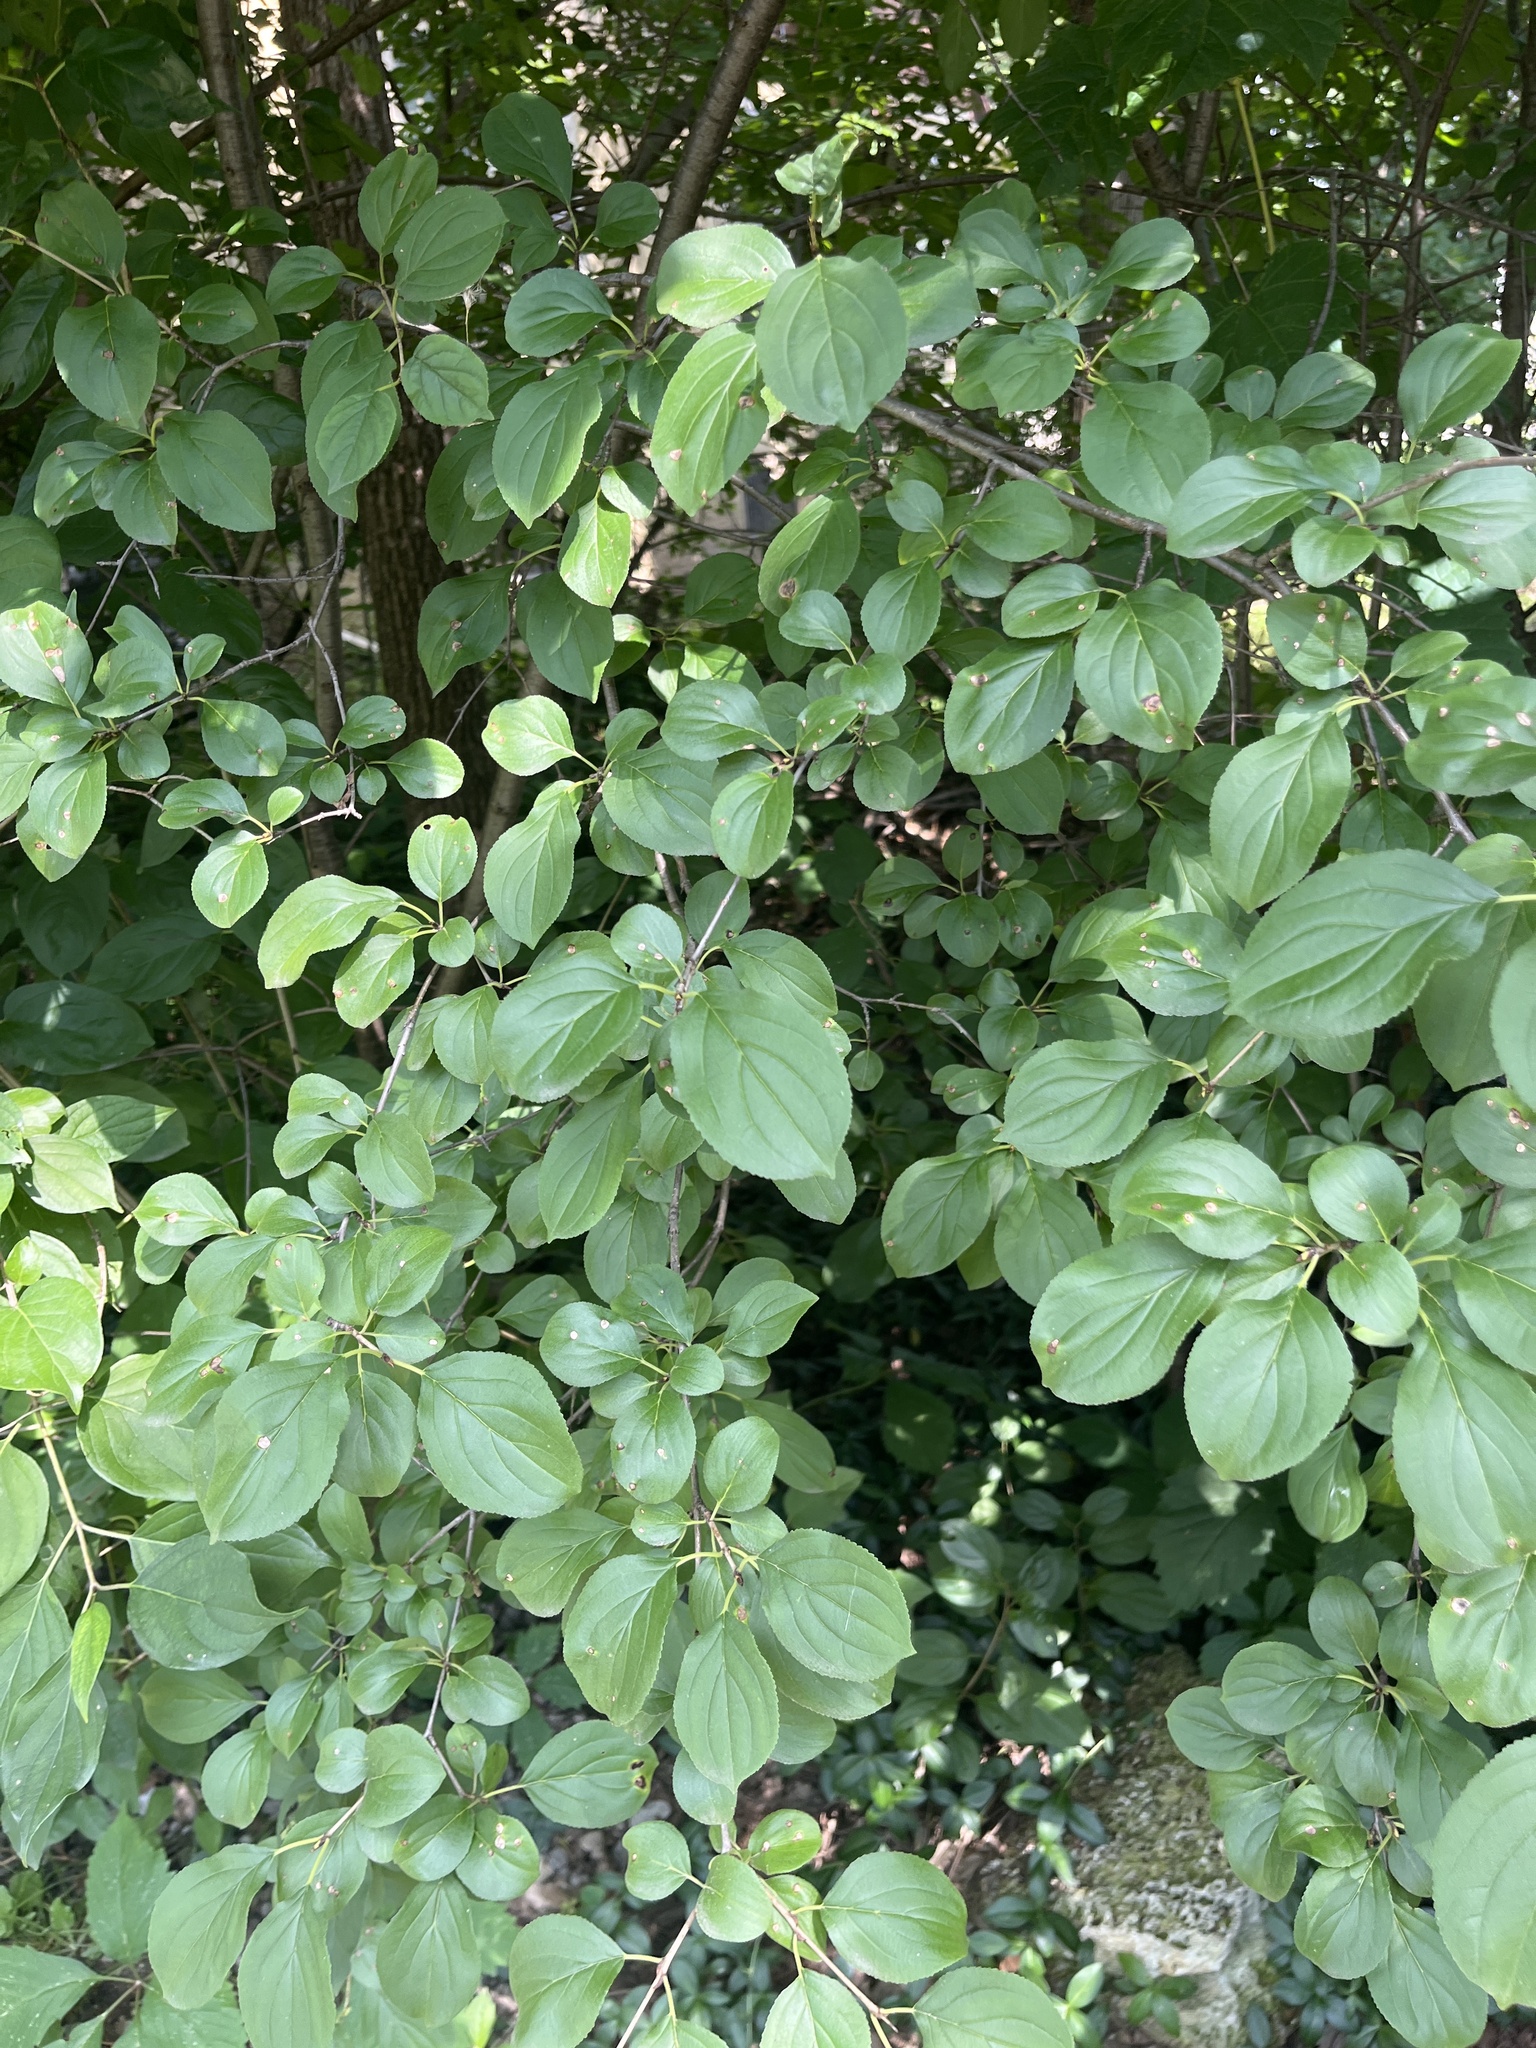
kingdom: Plantae
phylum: Tracheophyta
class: Magnoliopsida
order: Rosales
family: Rhamnaceae
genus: Rhamnus
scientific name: Rhamnus cathartica
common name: Common buckthorn
